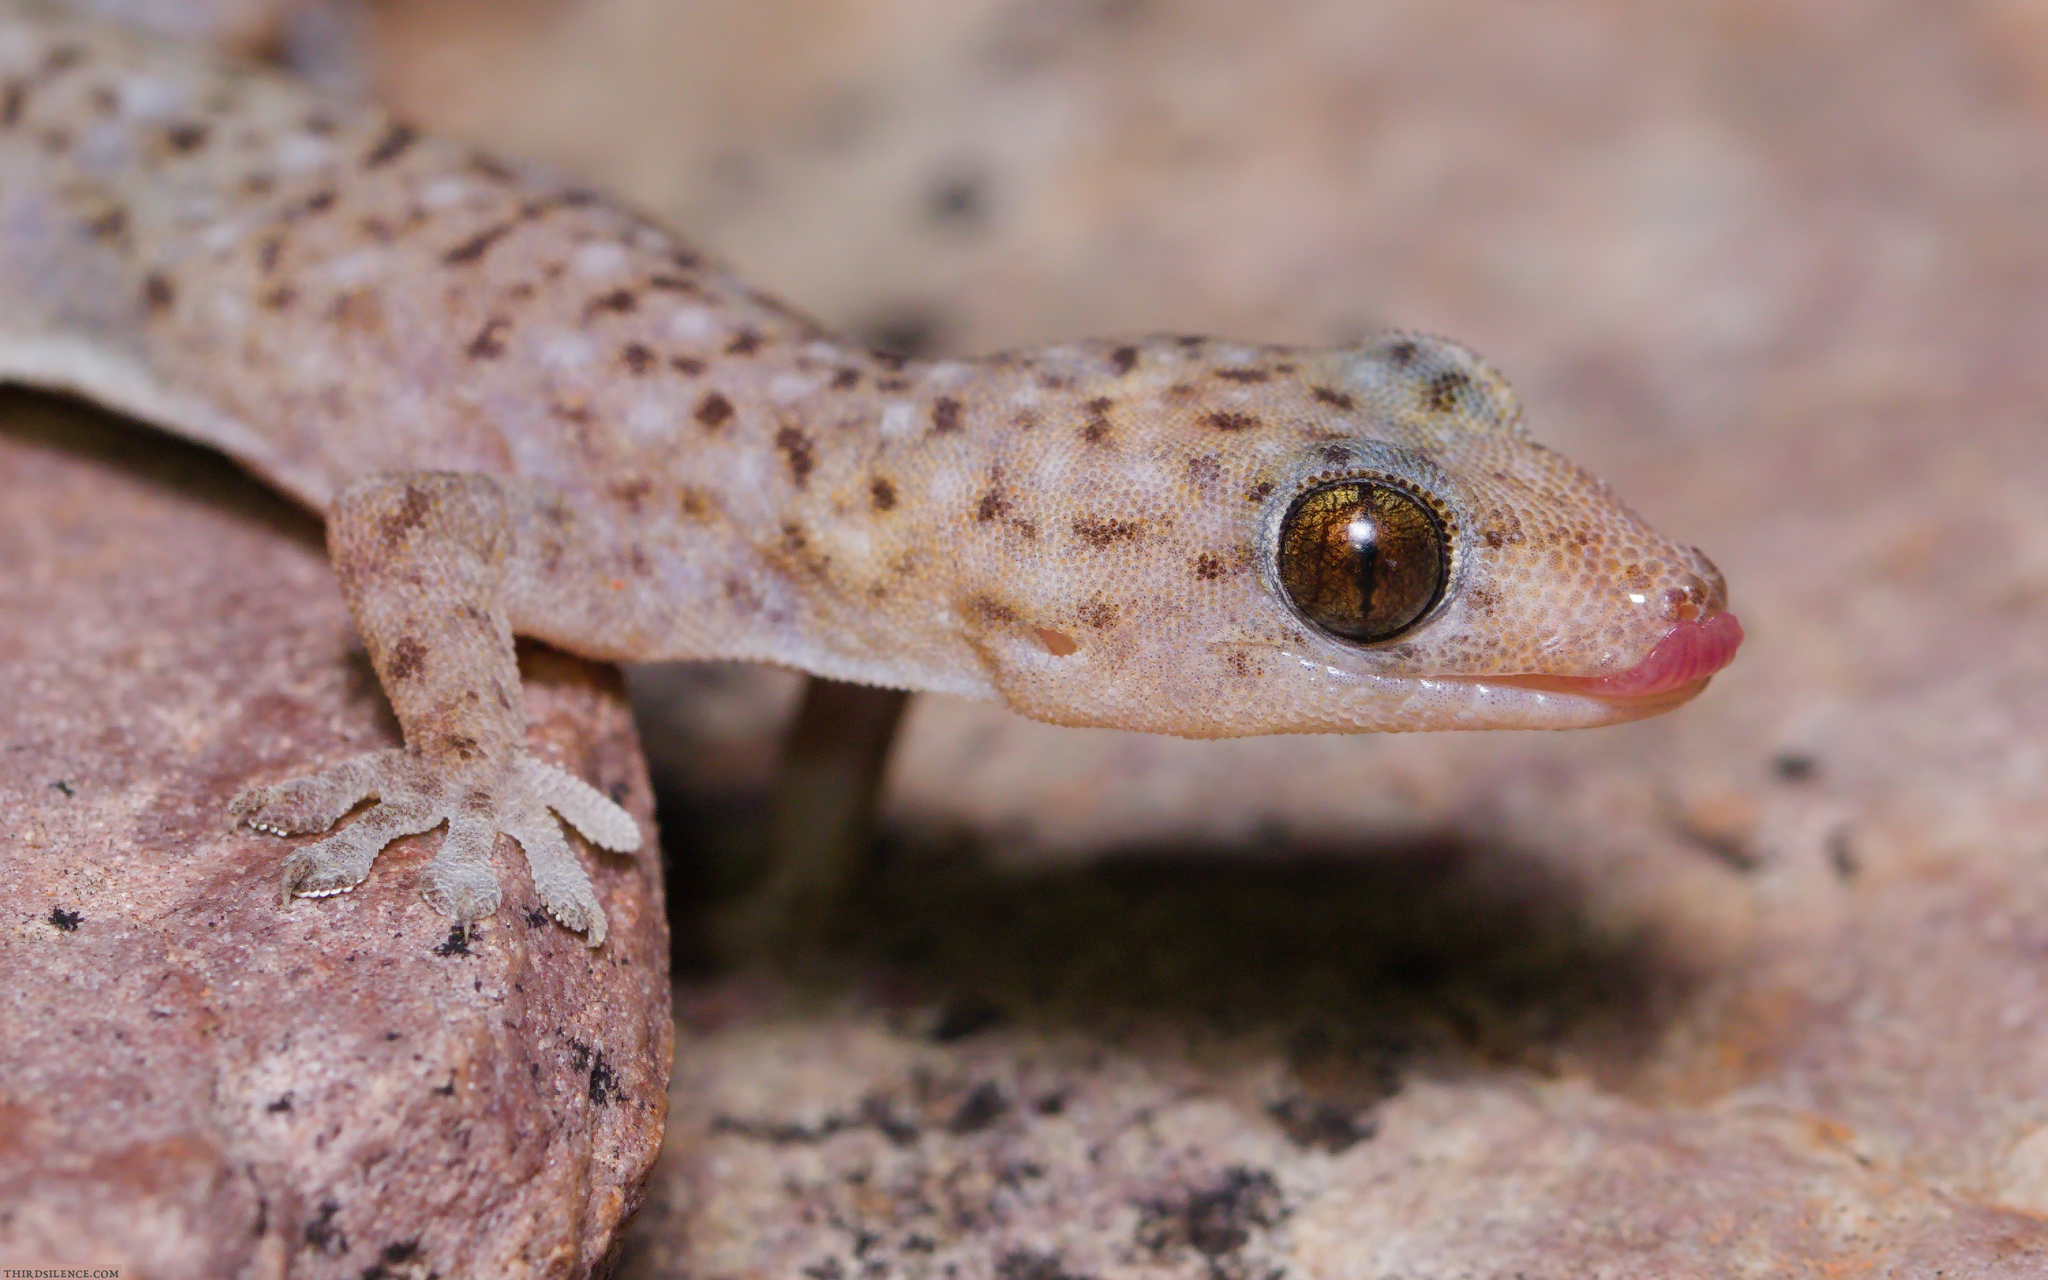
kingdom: Animalia
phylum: Chordata
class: Squamata
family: Gekkonidae
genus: Gehyra
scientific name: Gehyra moritzi
